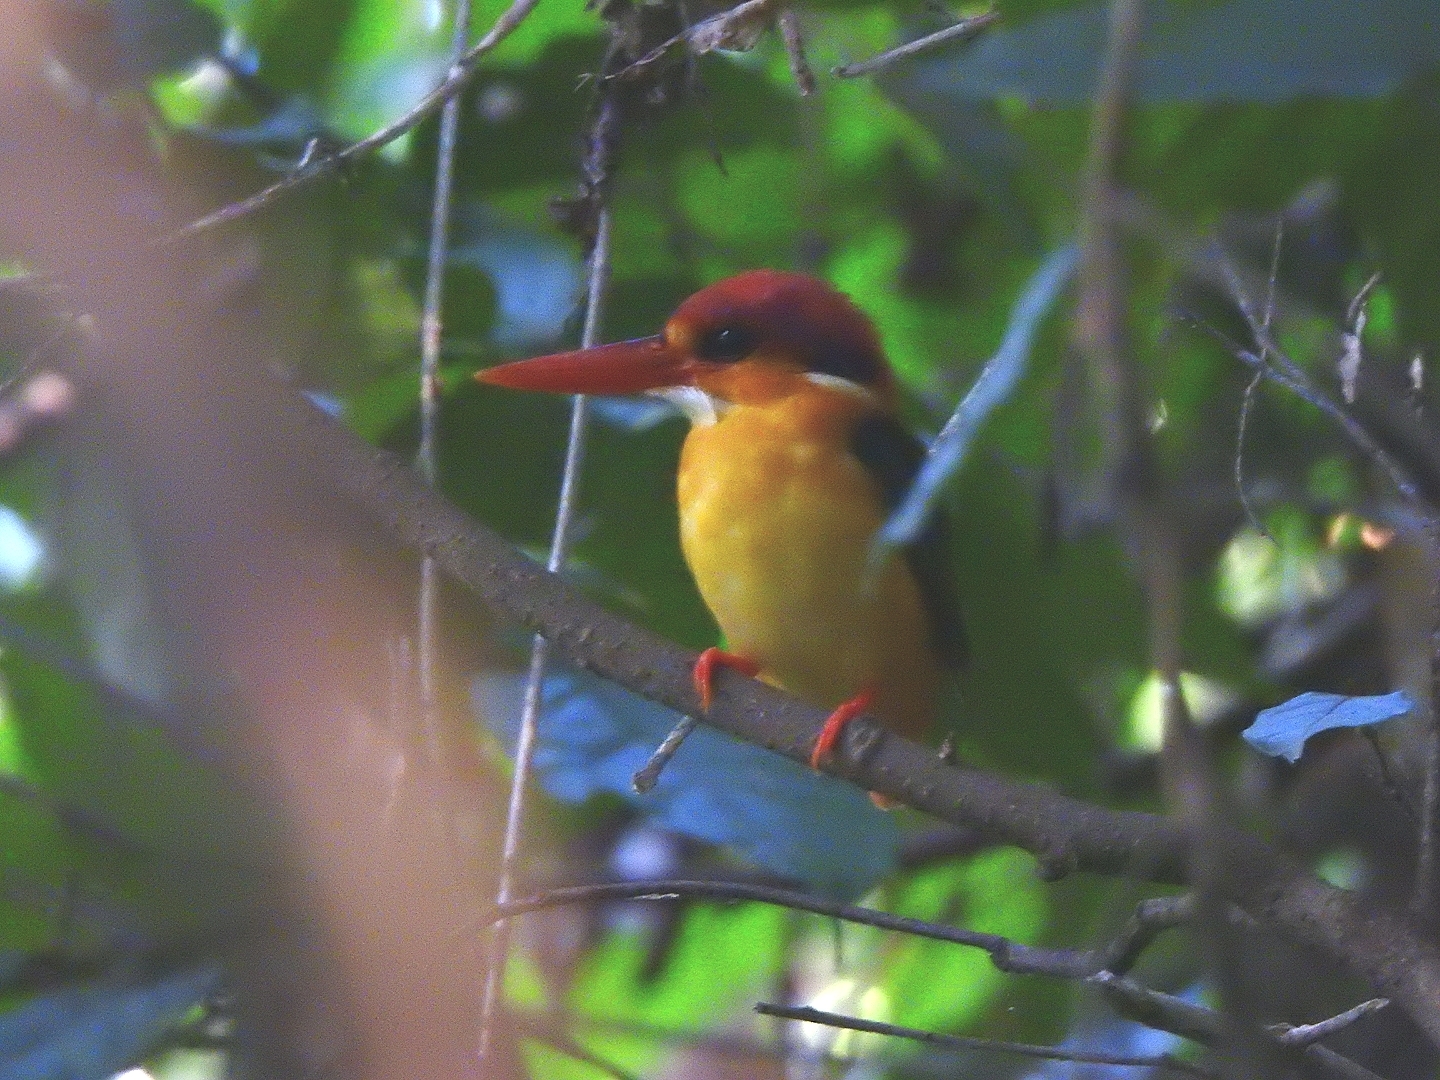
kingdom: Animalia
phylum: Chordata
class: Aves
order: Coraciiformes
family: Alcedinidae
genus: Ceyx
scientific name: Ceyx erithaca
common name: Oriental dwarf kingfisher
